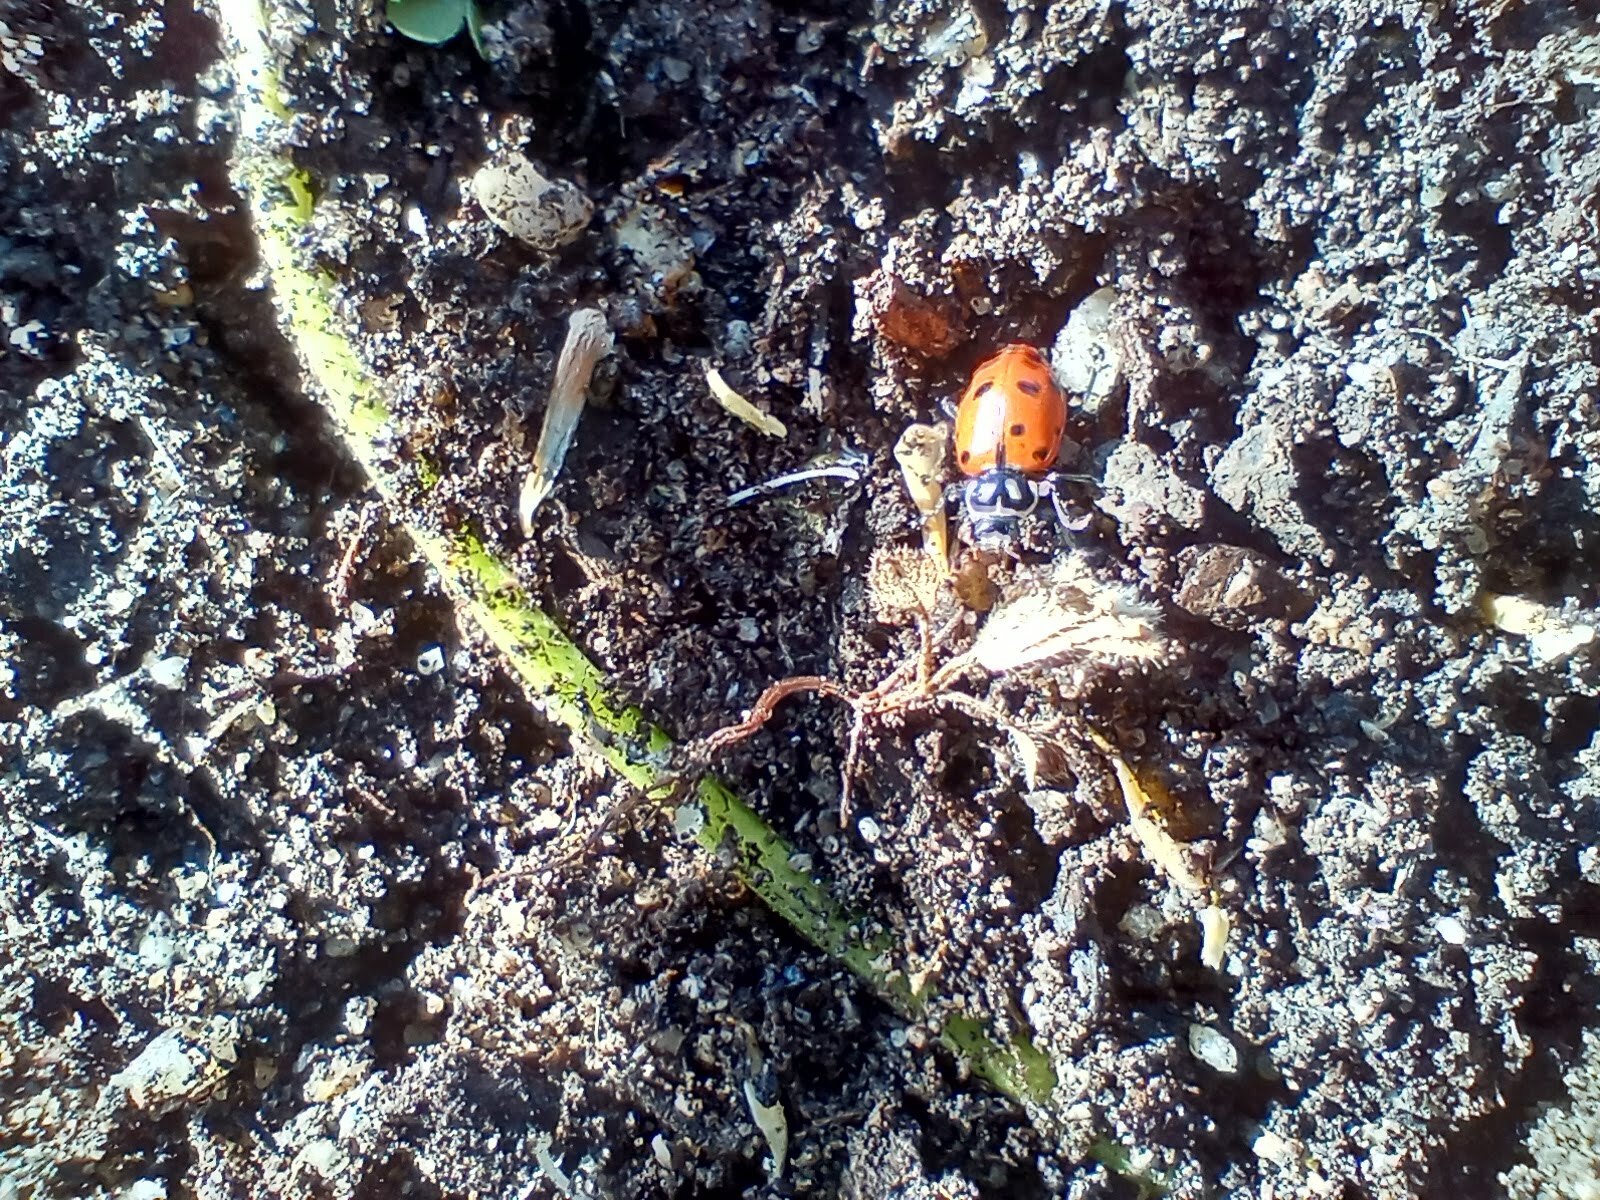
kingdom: Animalia
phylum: Arthropoda
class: Insecta
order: Coleoptera
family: Coccinellidae
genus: Hippodamia
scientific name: Hippodamia convergens
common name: Convergent lady beetle
